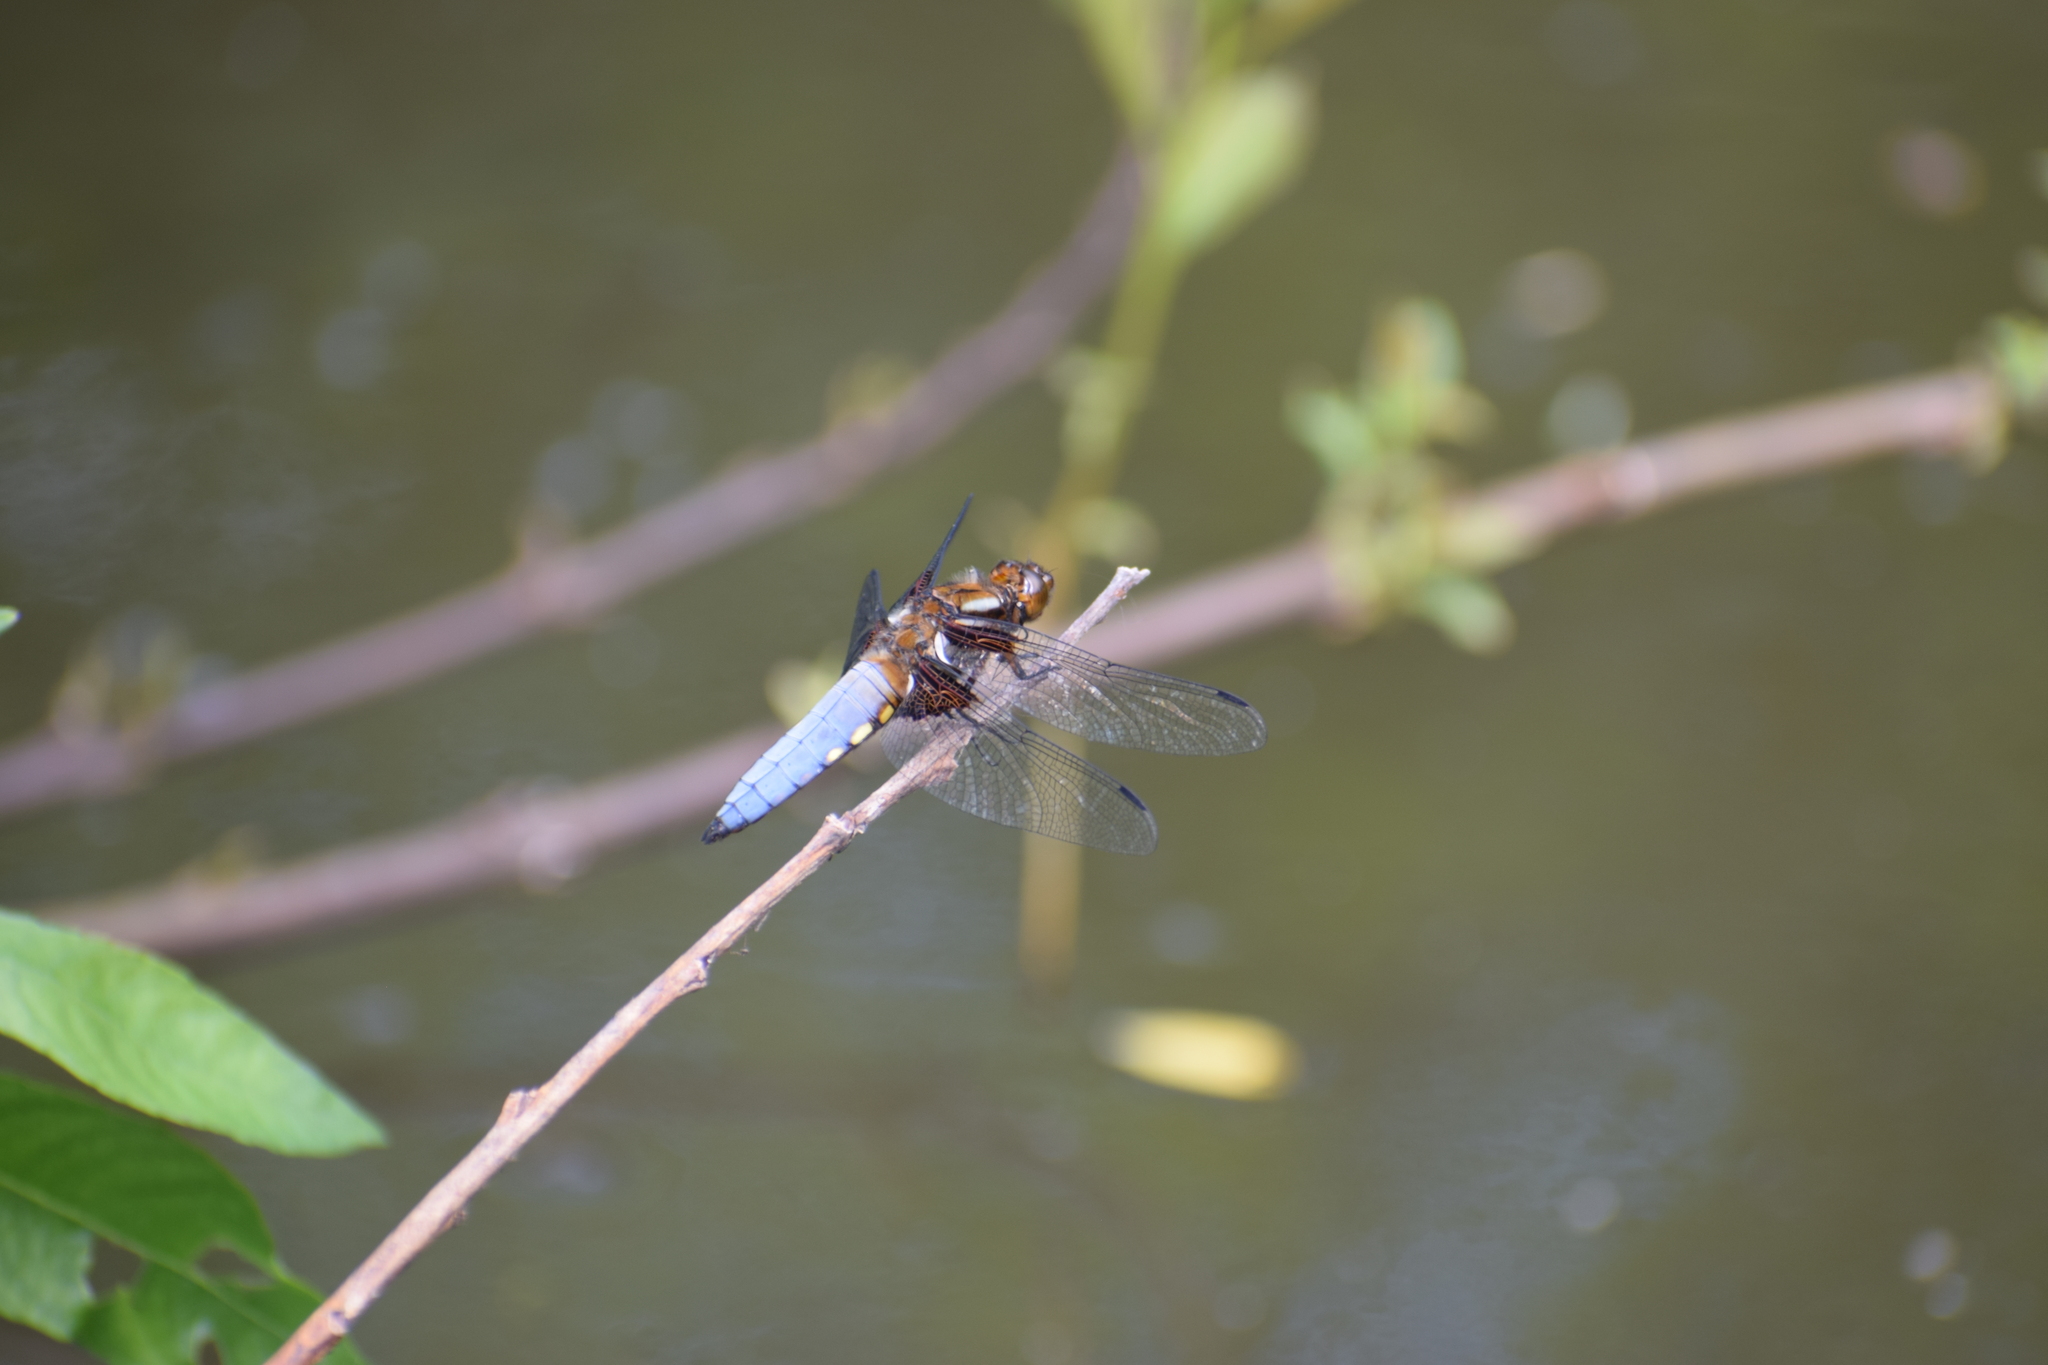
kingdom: Animalia
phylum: Arthropoda
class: Insecta
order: Odonata
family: Libellulidae
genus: Libellula
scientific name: Libellula depressa
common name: Broad-bodied chaser
